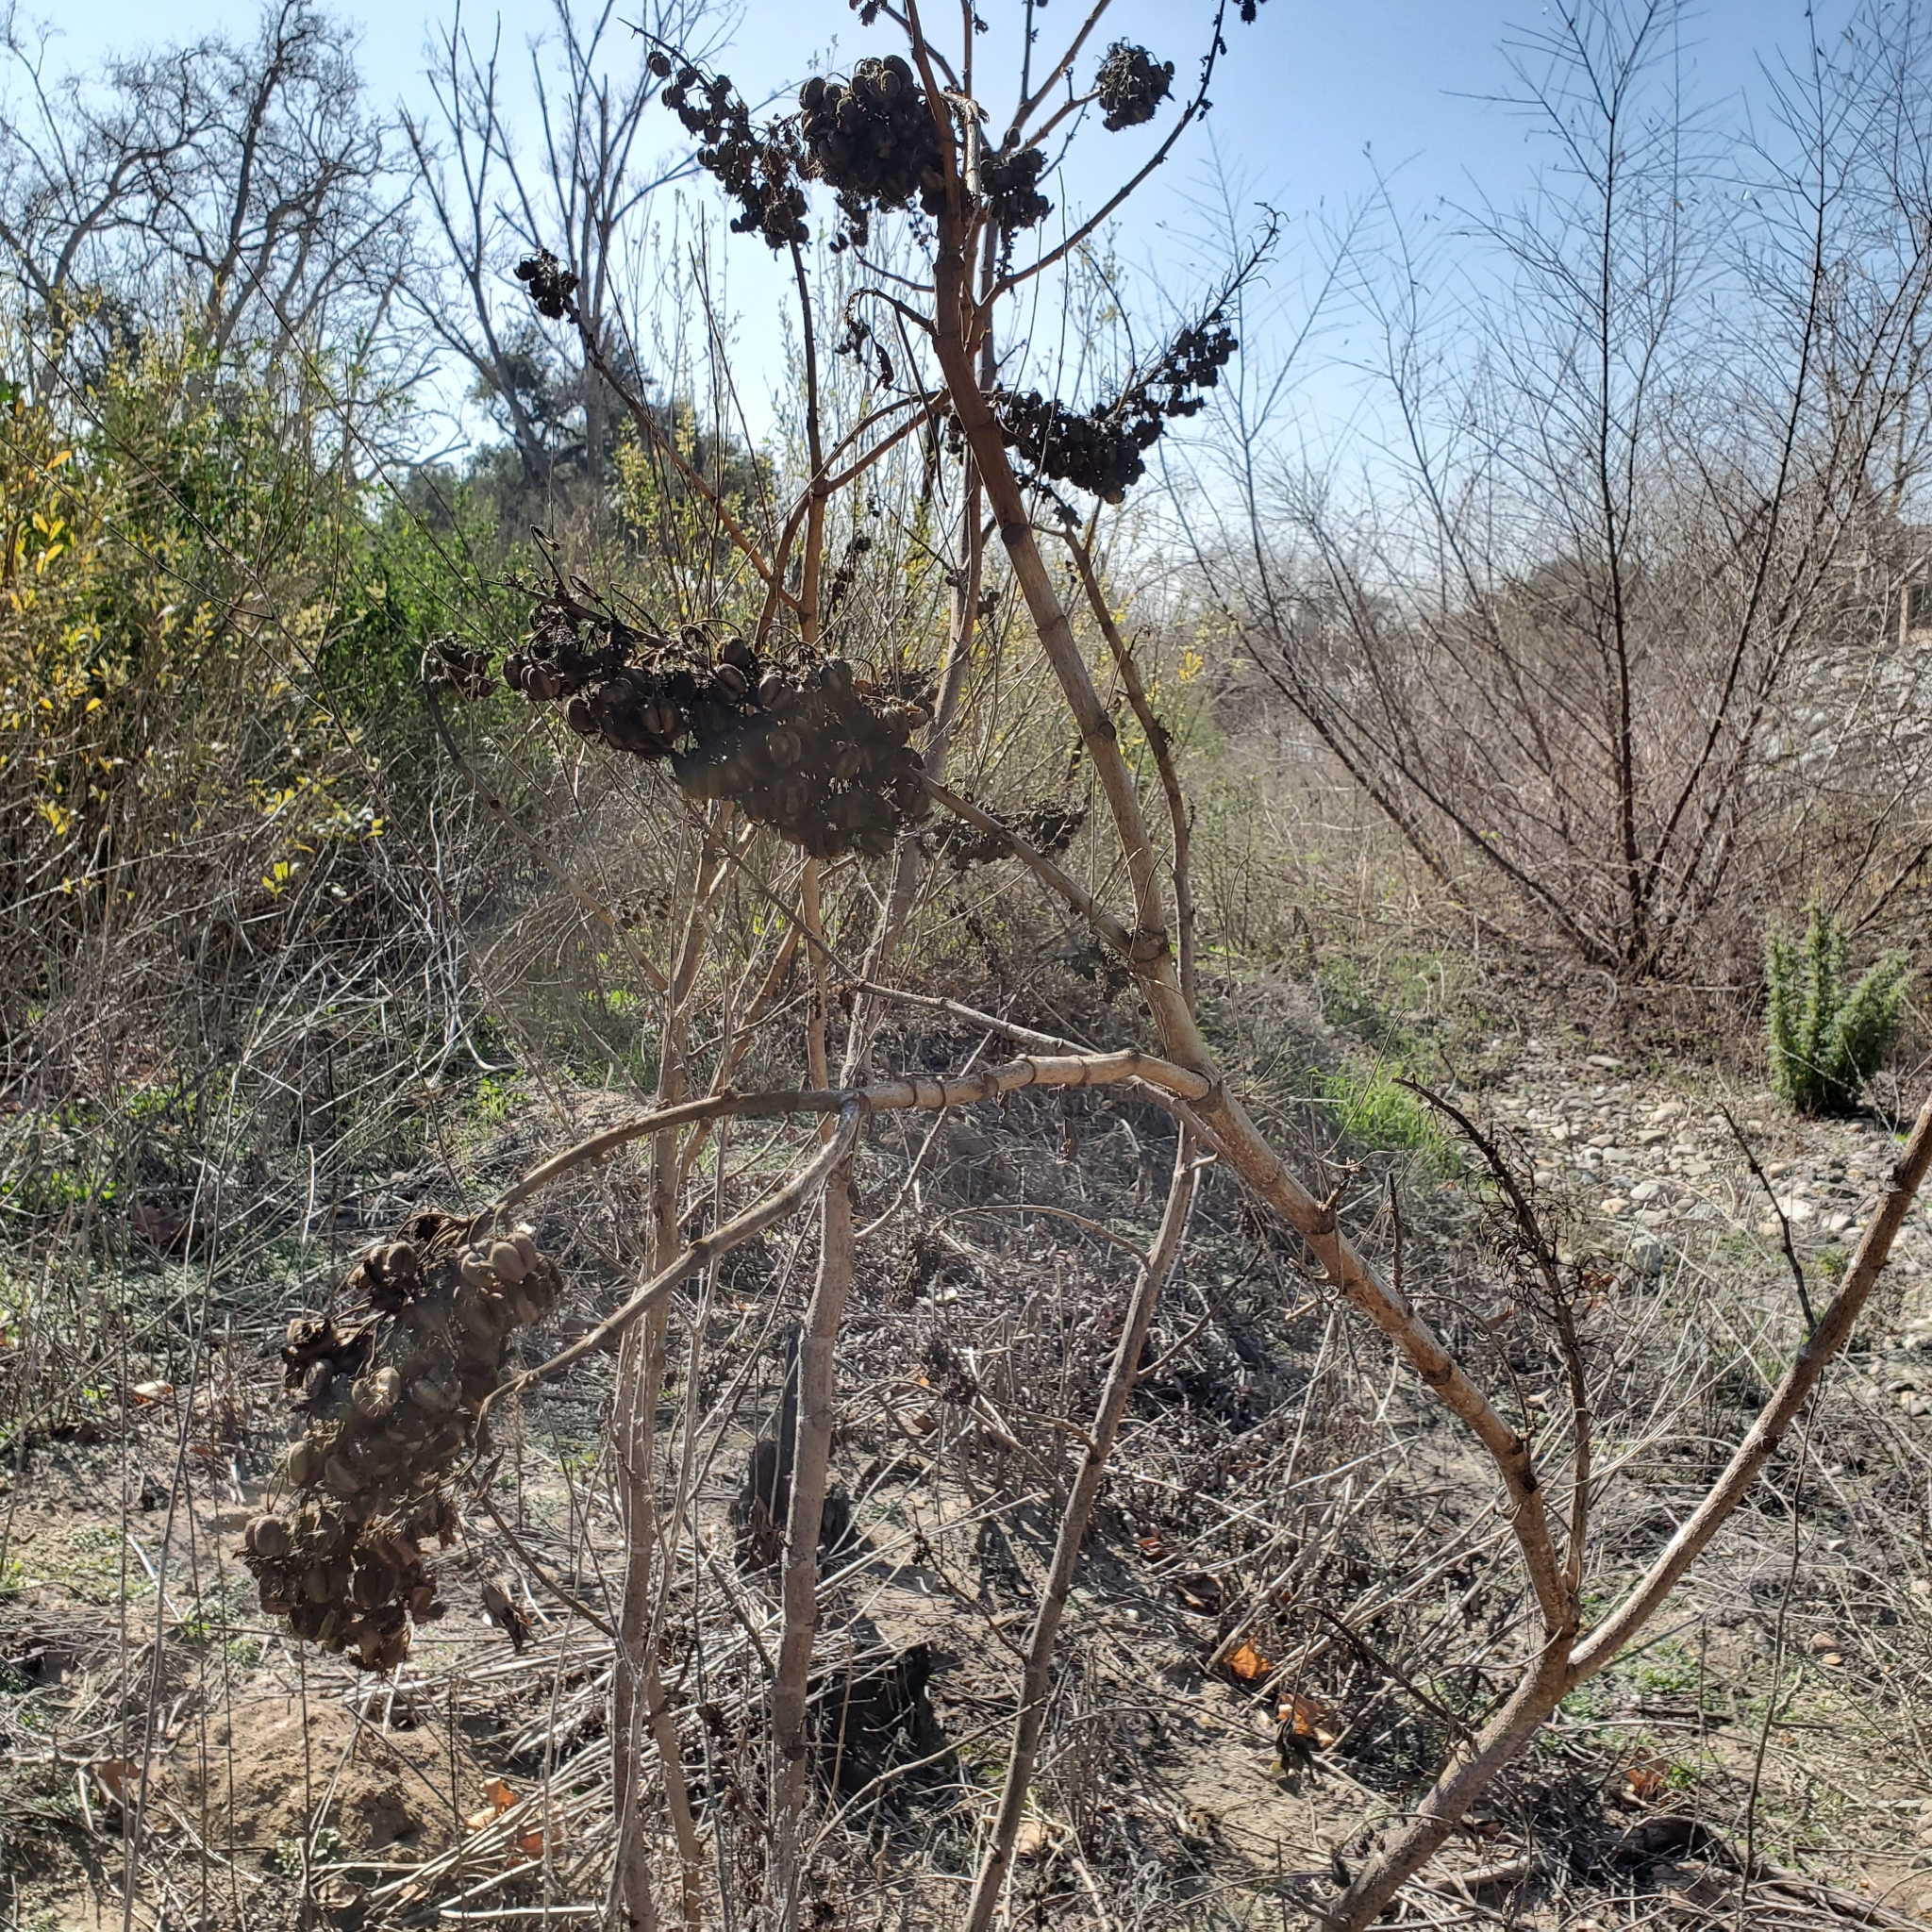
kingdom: Plantae
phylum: Tracheophyta
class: Magnoliopsida
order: Malpighiales
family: Euphorbiaceae
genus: Ricinus
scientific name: Ricinus communis
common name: Castor-oil-plant
